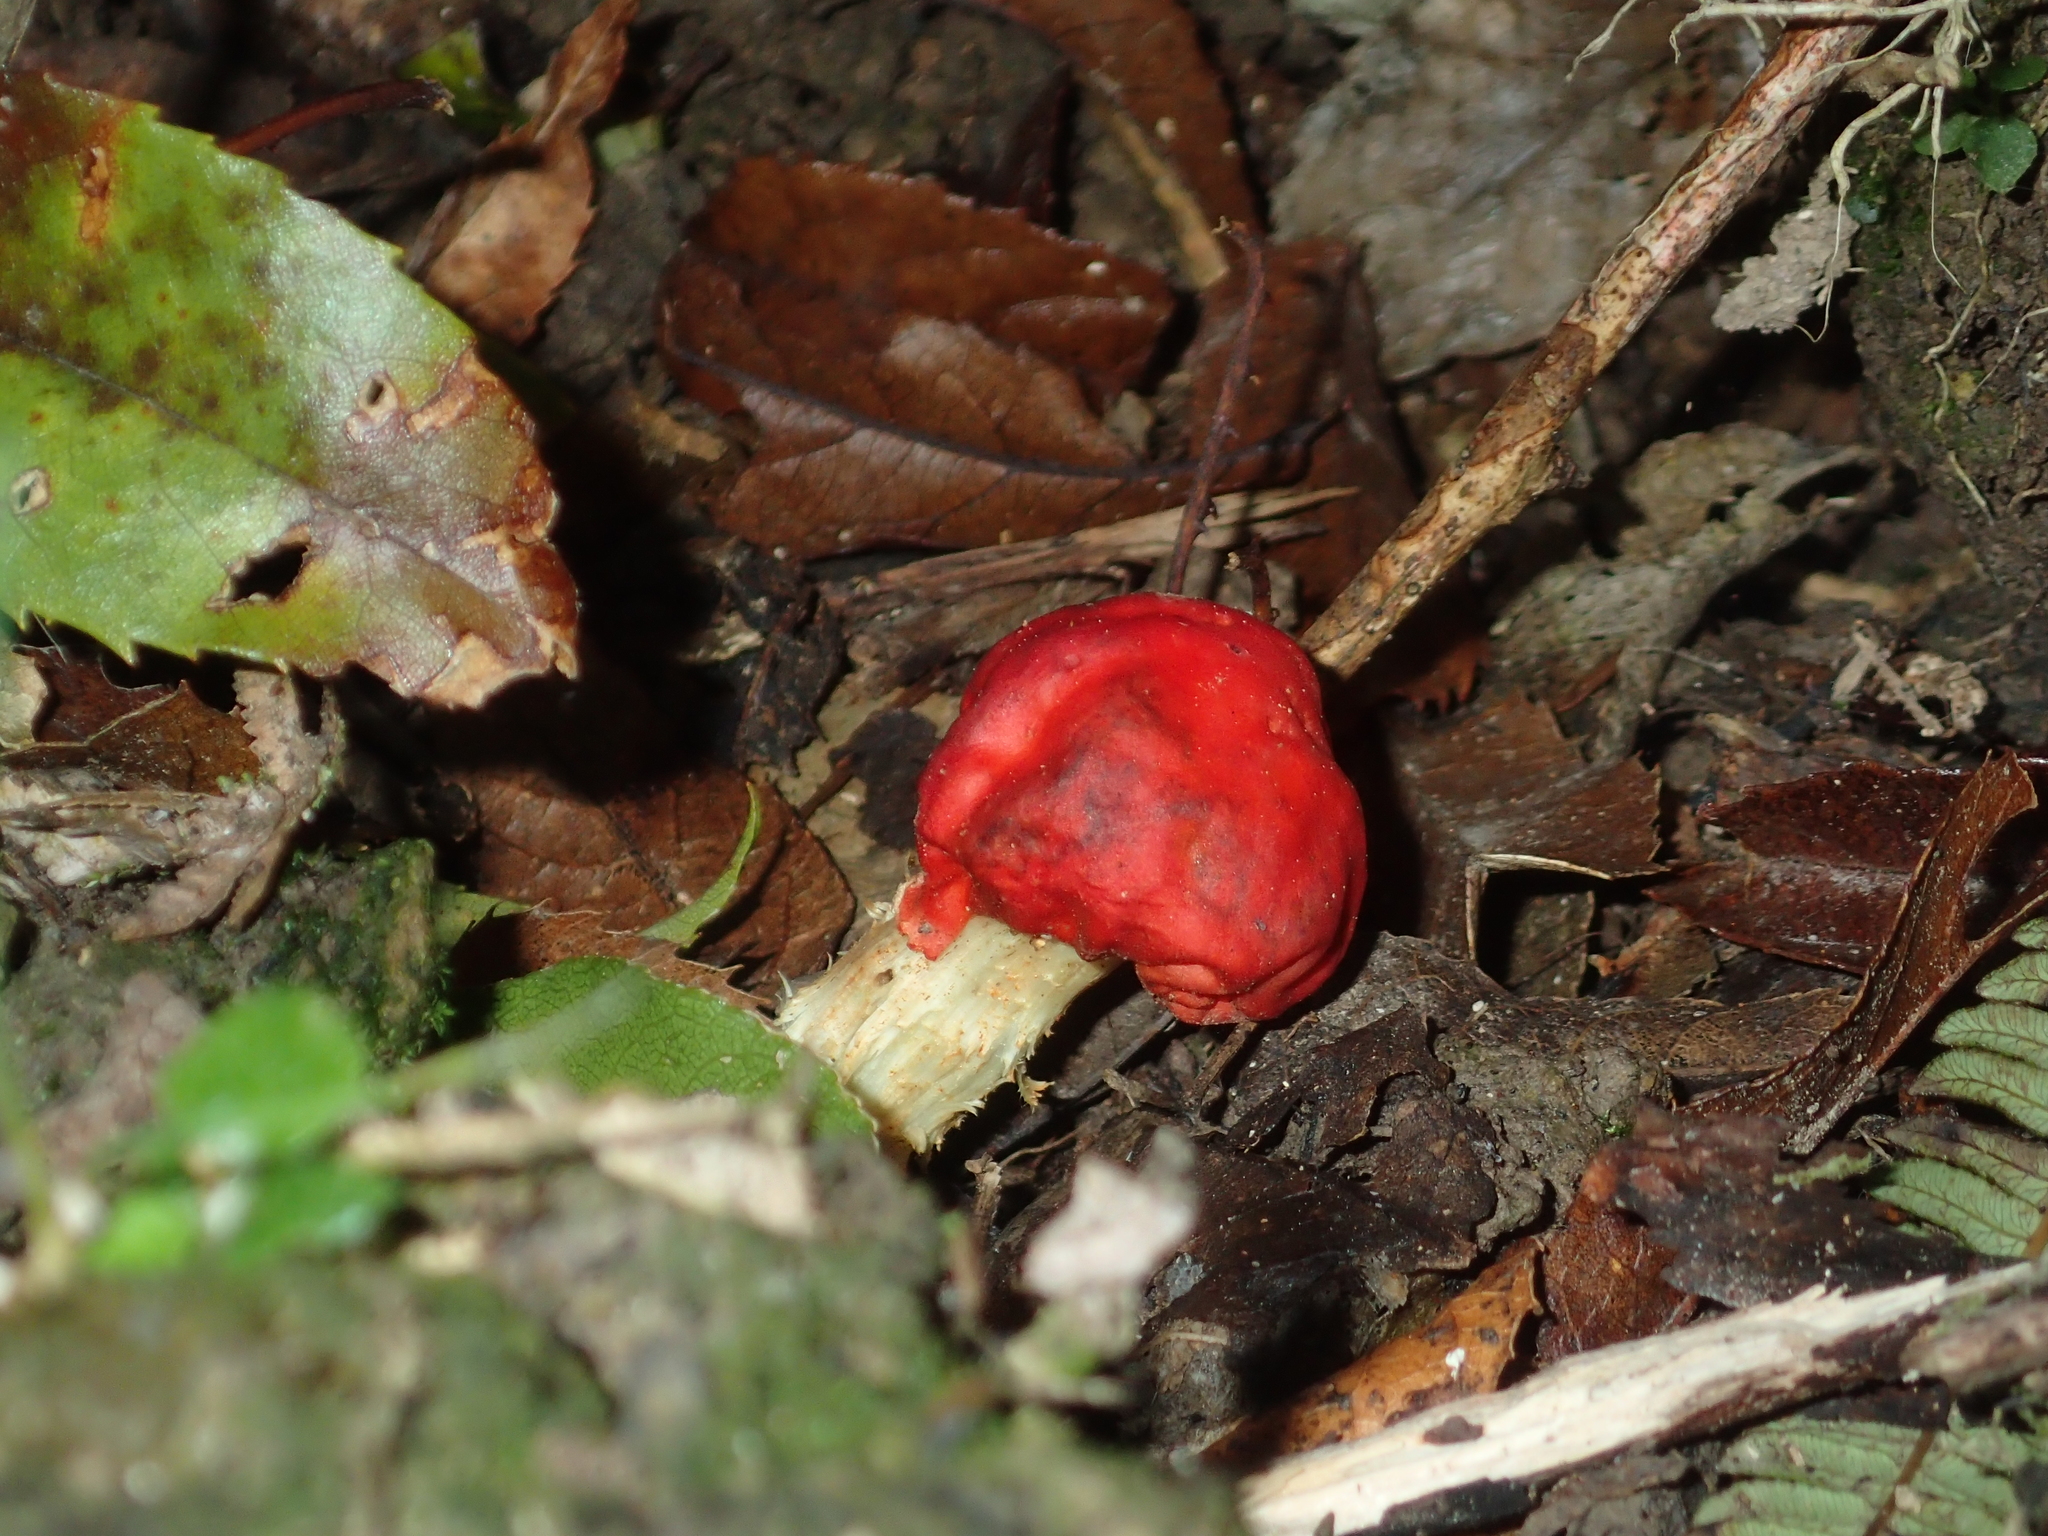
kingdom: Fungi
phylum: Basidiomycota
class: Agaricomycetes
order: Agaricales
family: Strophariaceae
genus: Leratiomyces
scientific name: Leratiomyces erythrocephalus
